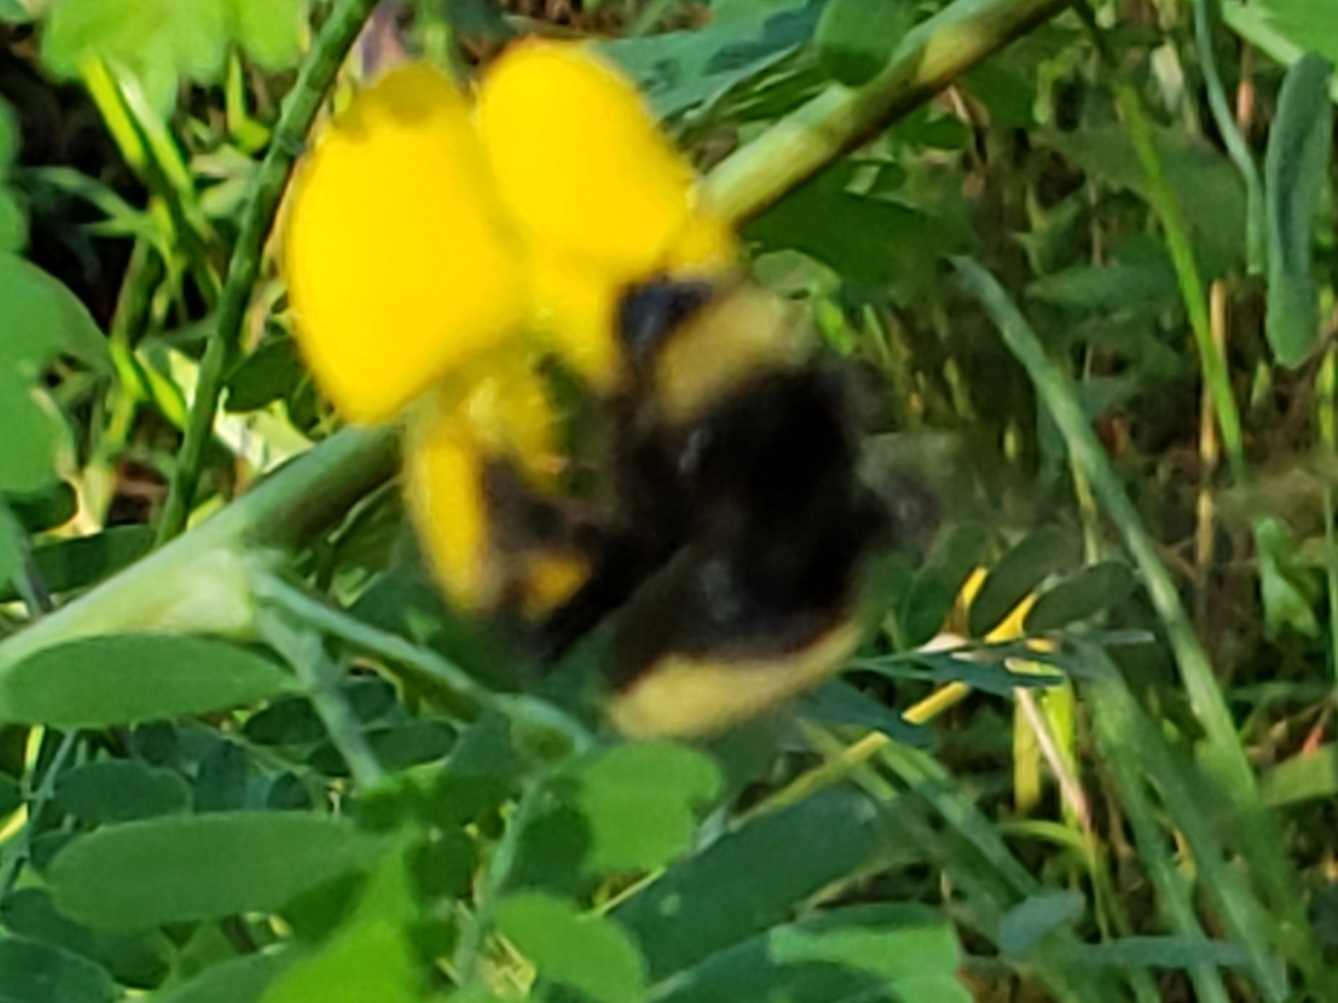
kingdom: Animalia
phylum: Arthropoda
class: Insecta
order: Hymenoptera
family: Apidae
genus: Bombus
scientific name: Bombus pensylvanicus
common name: Bumble bee
